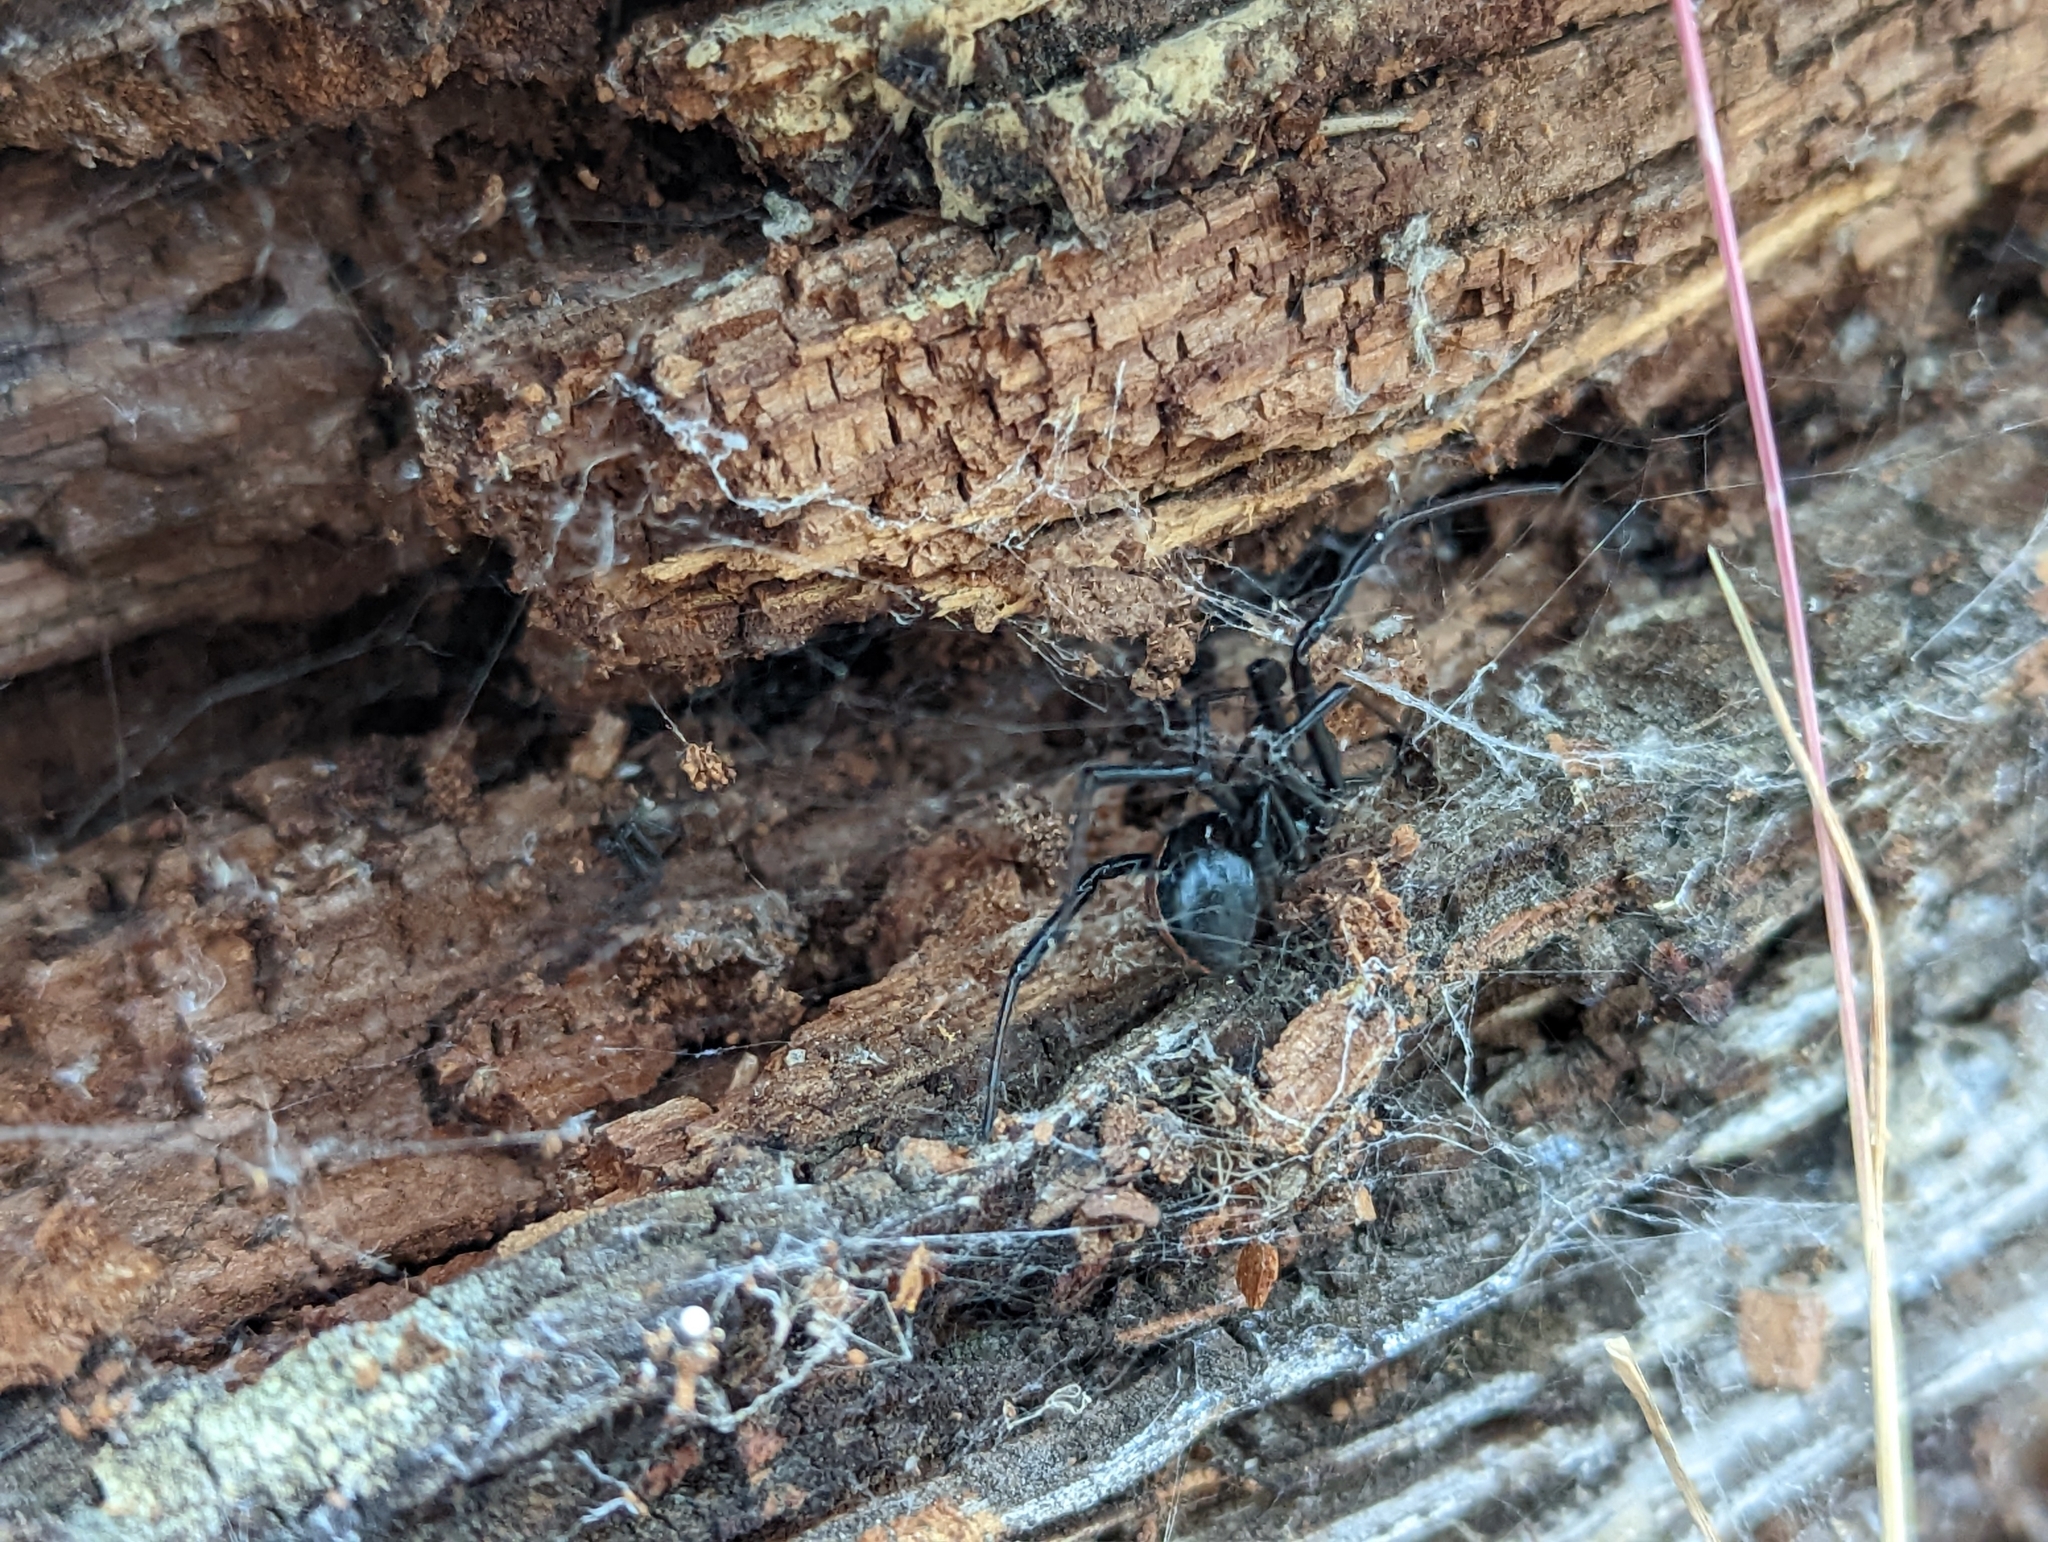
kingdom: Animalia
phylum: Arthropoda
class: Arachnida
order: Araneae
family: Theridiidae
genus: Latrodectus
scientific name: Latrodectus hesperus
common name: Western black widow
